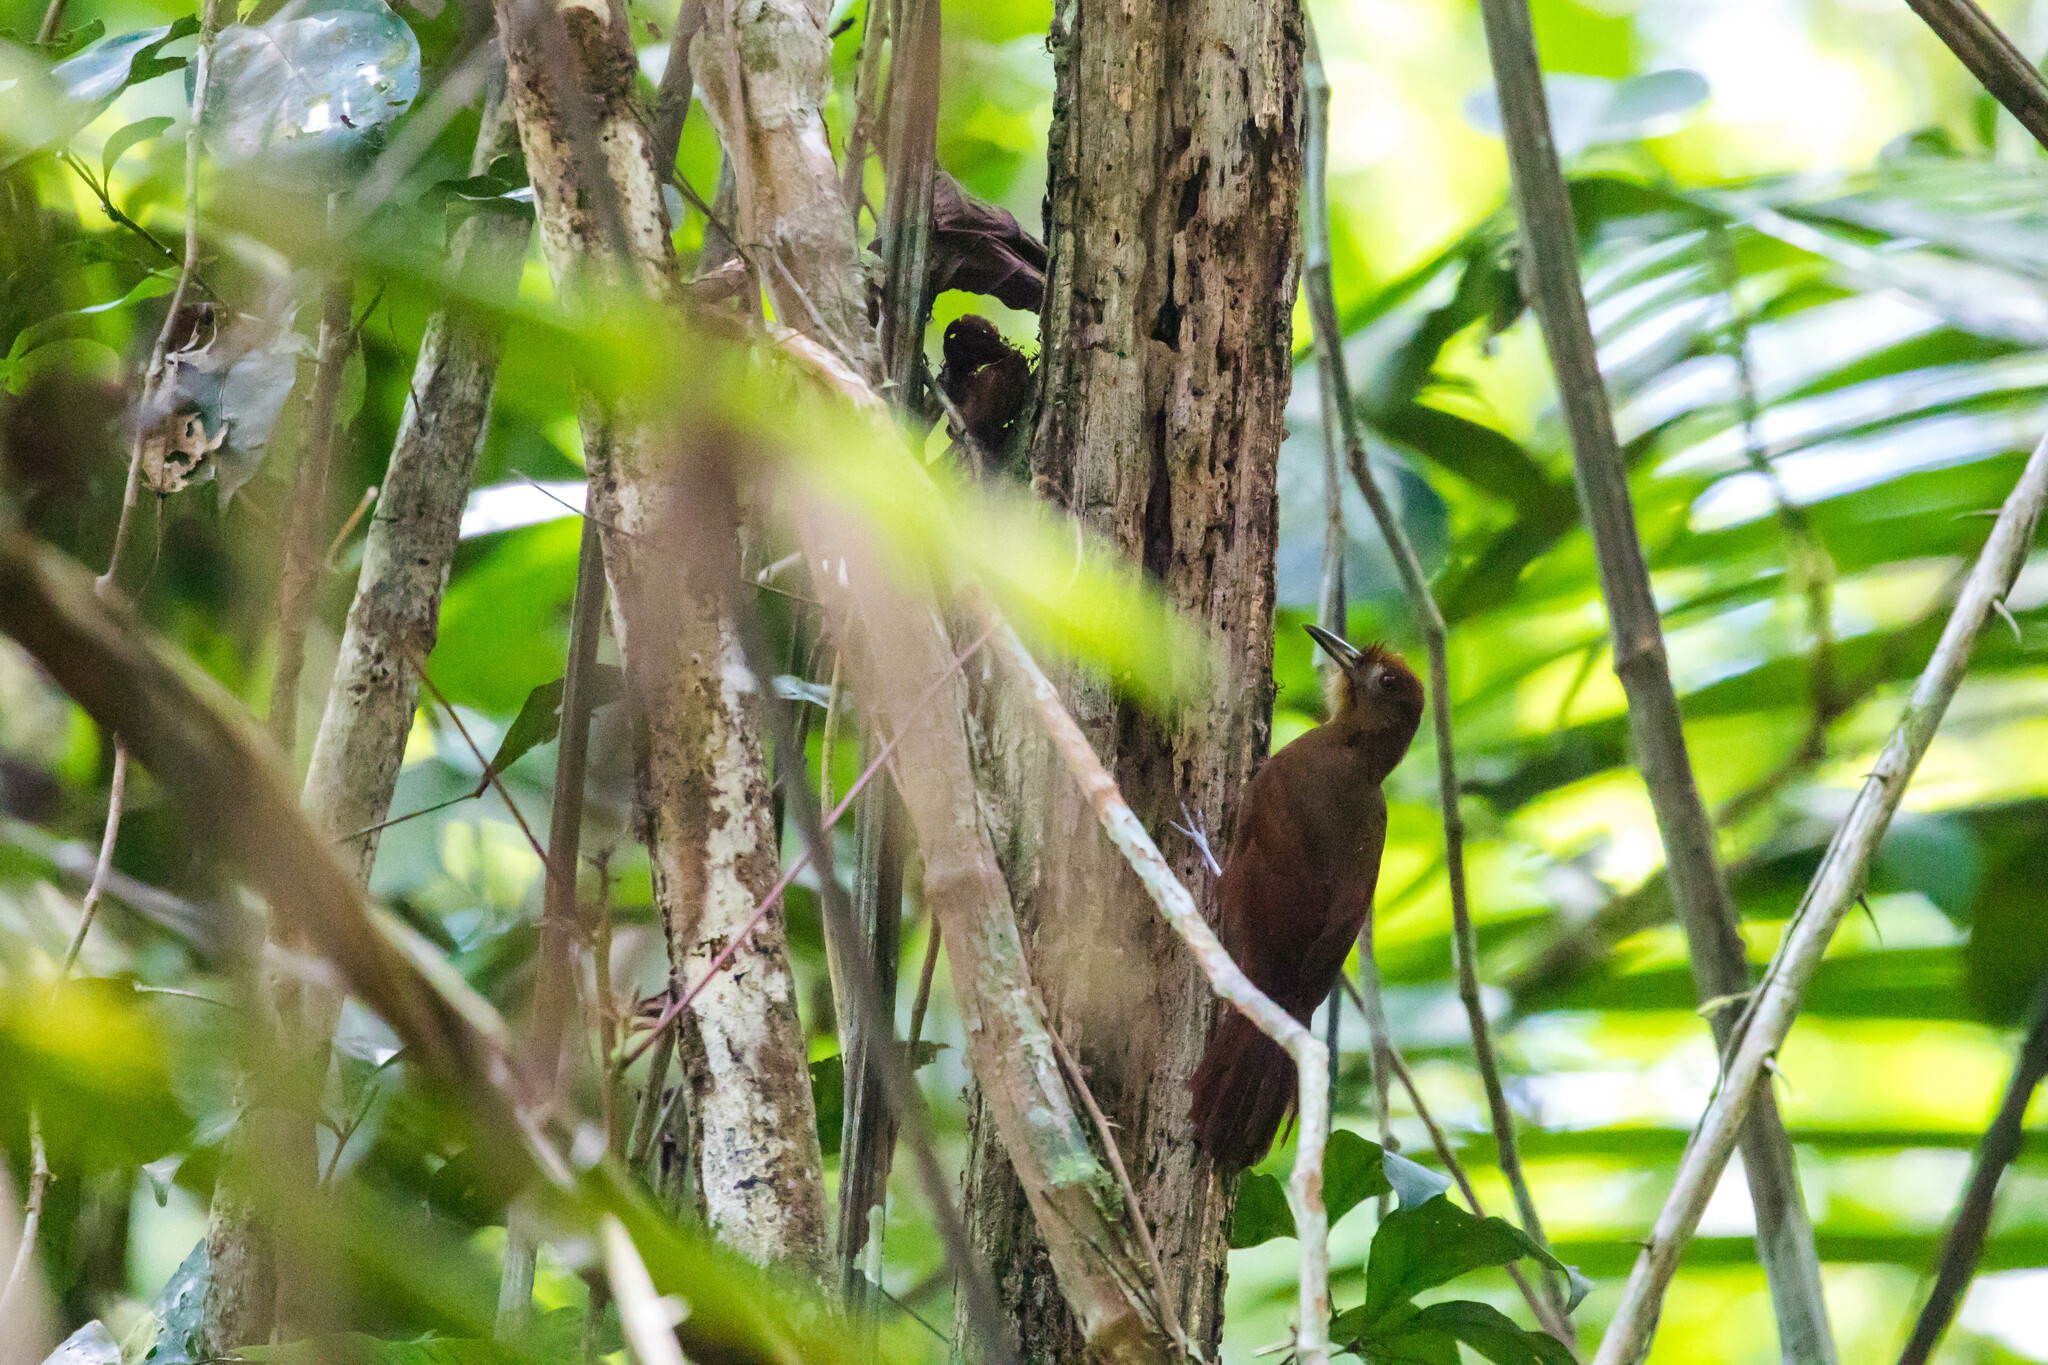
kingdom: Animalia
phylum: Chordata
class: Aves
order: Passeriformes
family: Furnariidae
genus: Dendrocincla
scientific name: Dendrocincla homochroa
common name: Ruddy woodcreeper
